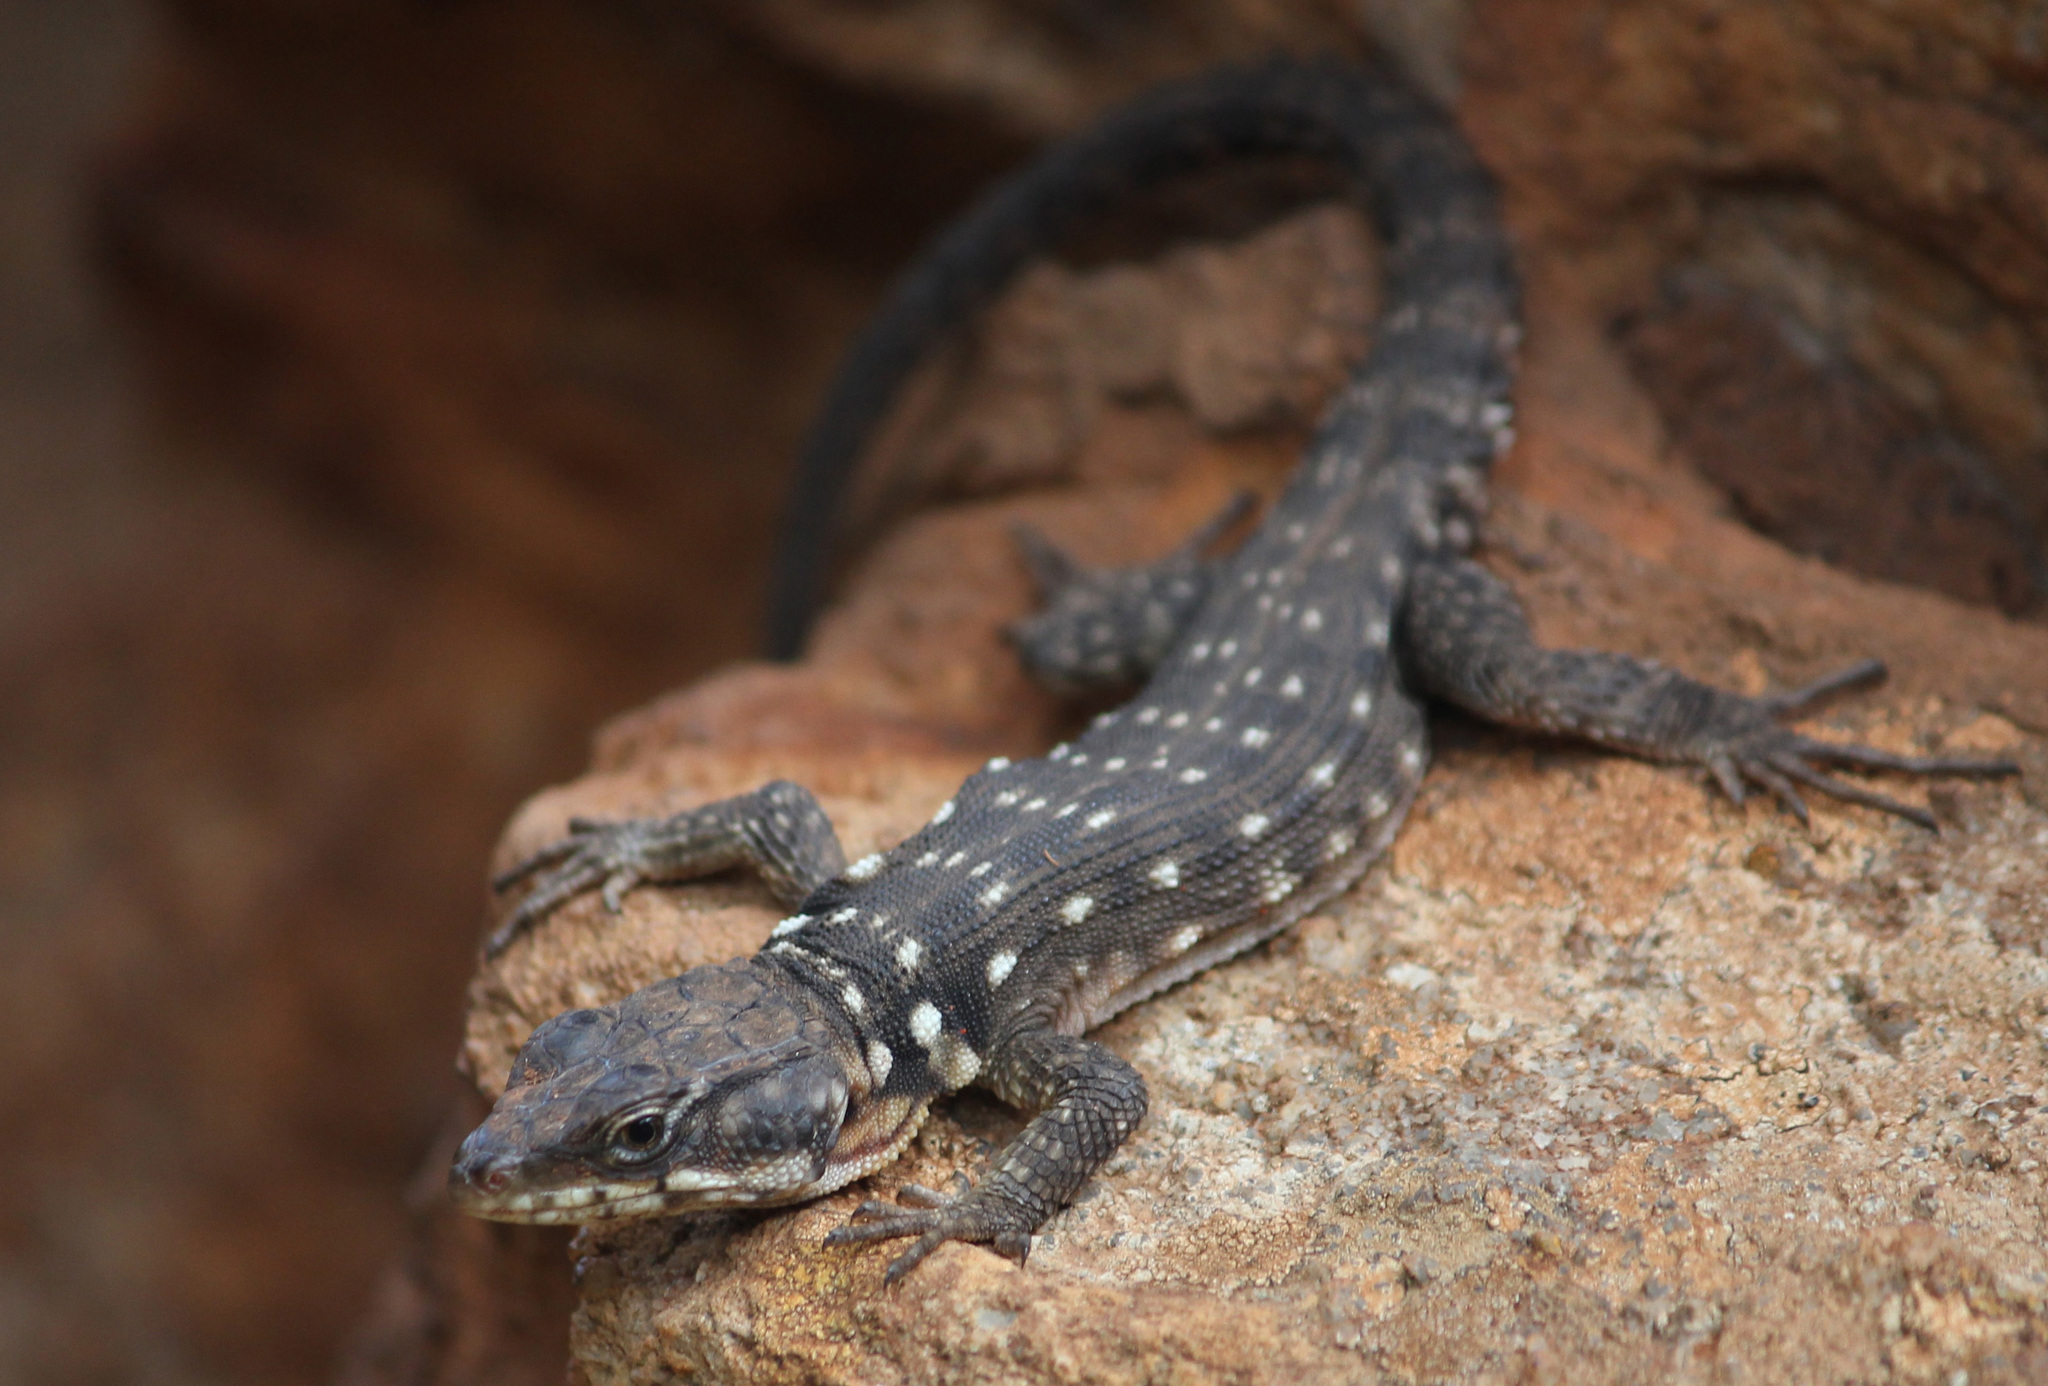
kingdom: Animalia
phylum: Chordata
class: Squamata
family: Cordylidae
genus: Pseudocordylus
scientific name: Pseudocordylus melanotus
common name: Highveld crag lizard
